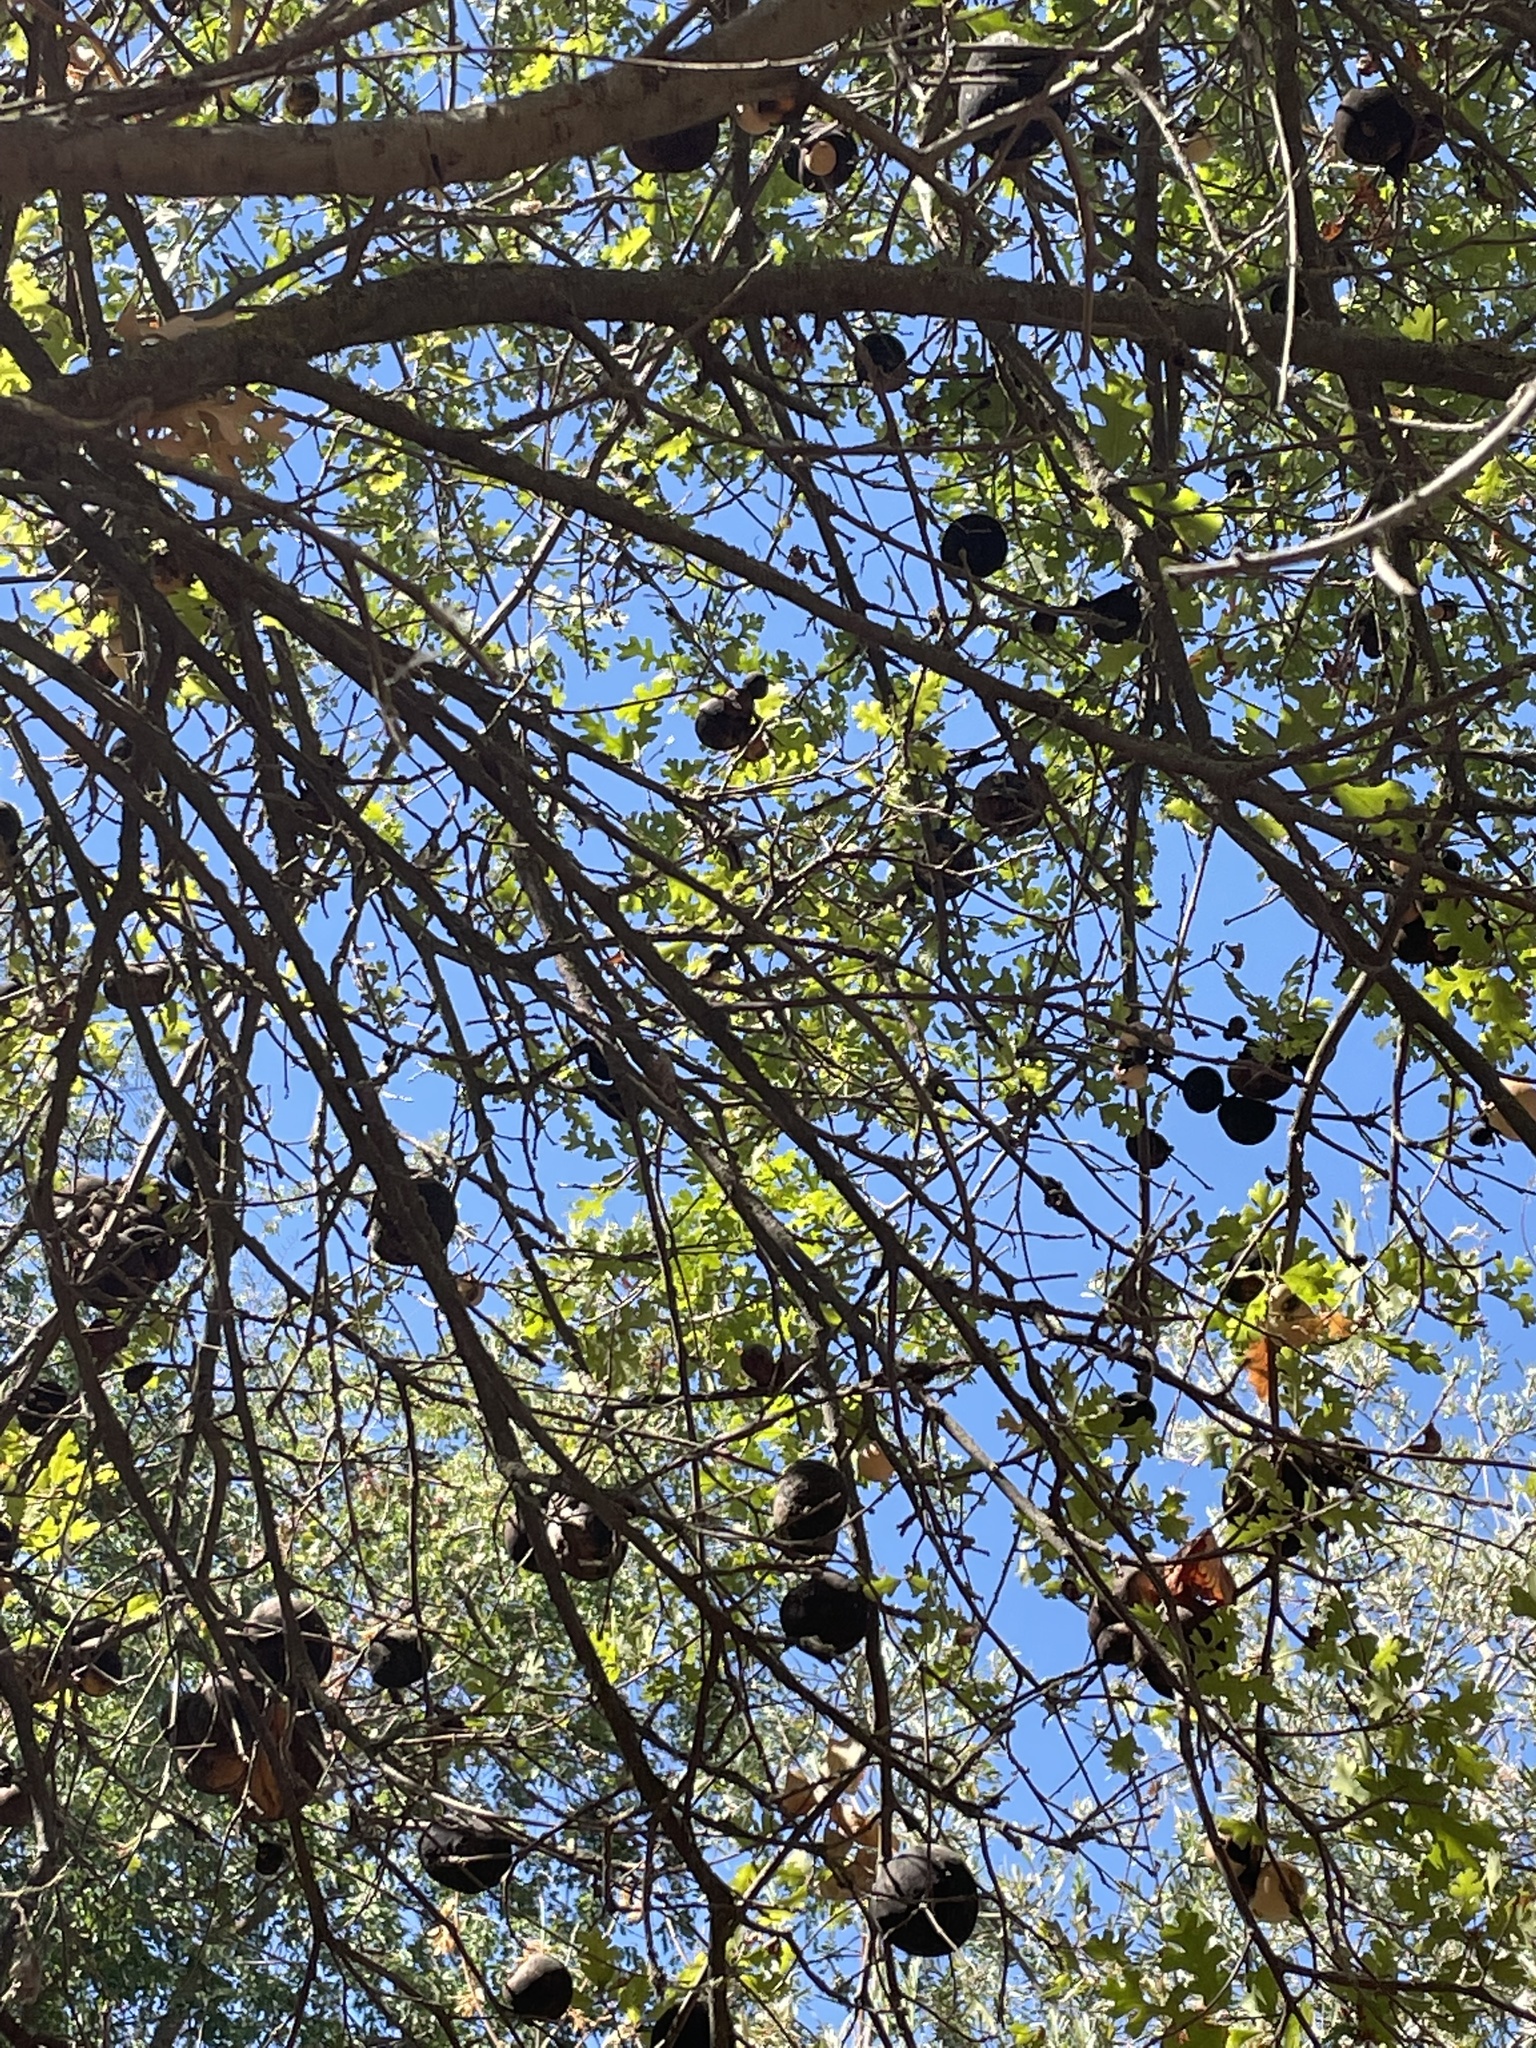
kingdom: Animalia
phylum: Arthropoda
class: Insecta
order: Hymenoptera
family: Cynipidae
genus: Andricus
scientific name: Andricus quercuscalifornicus
